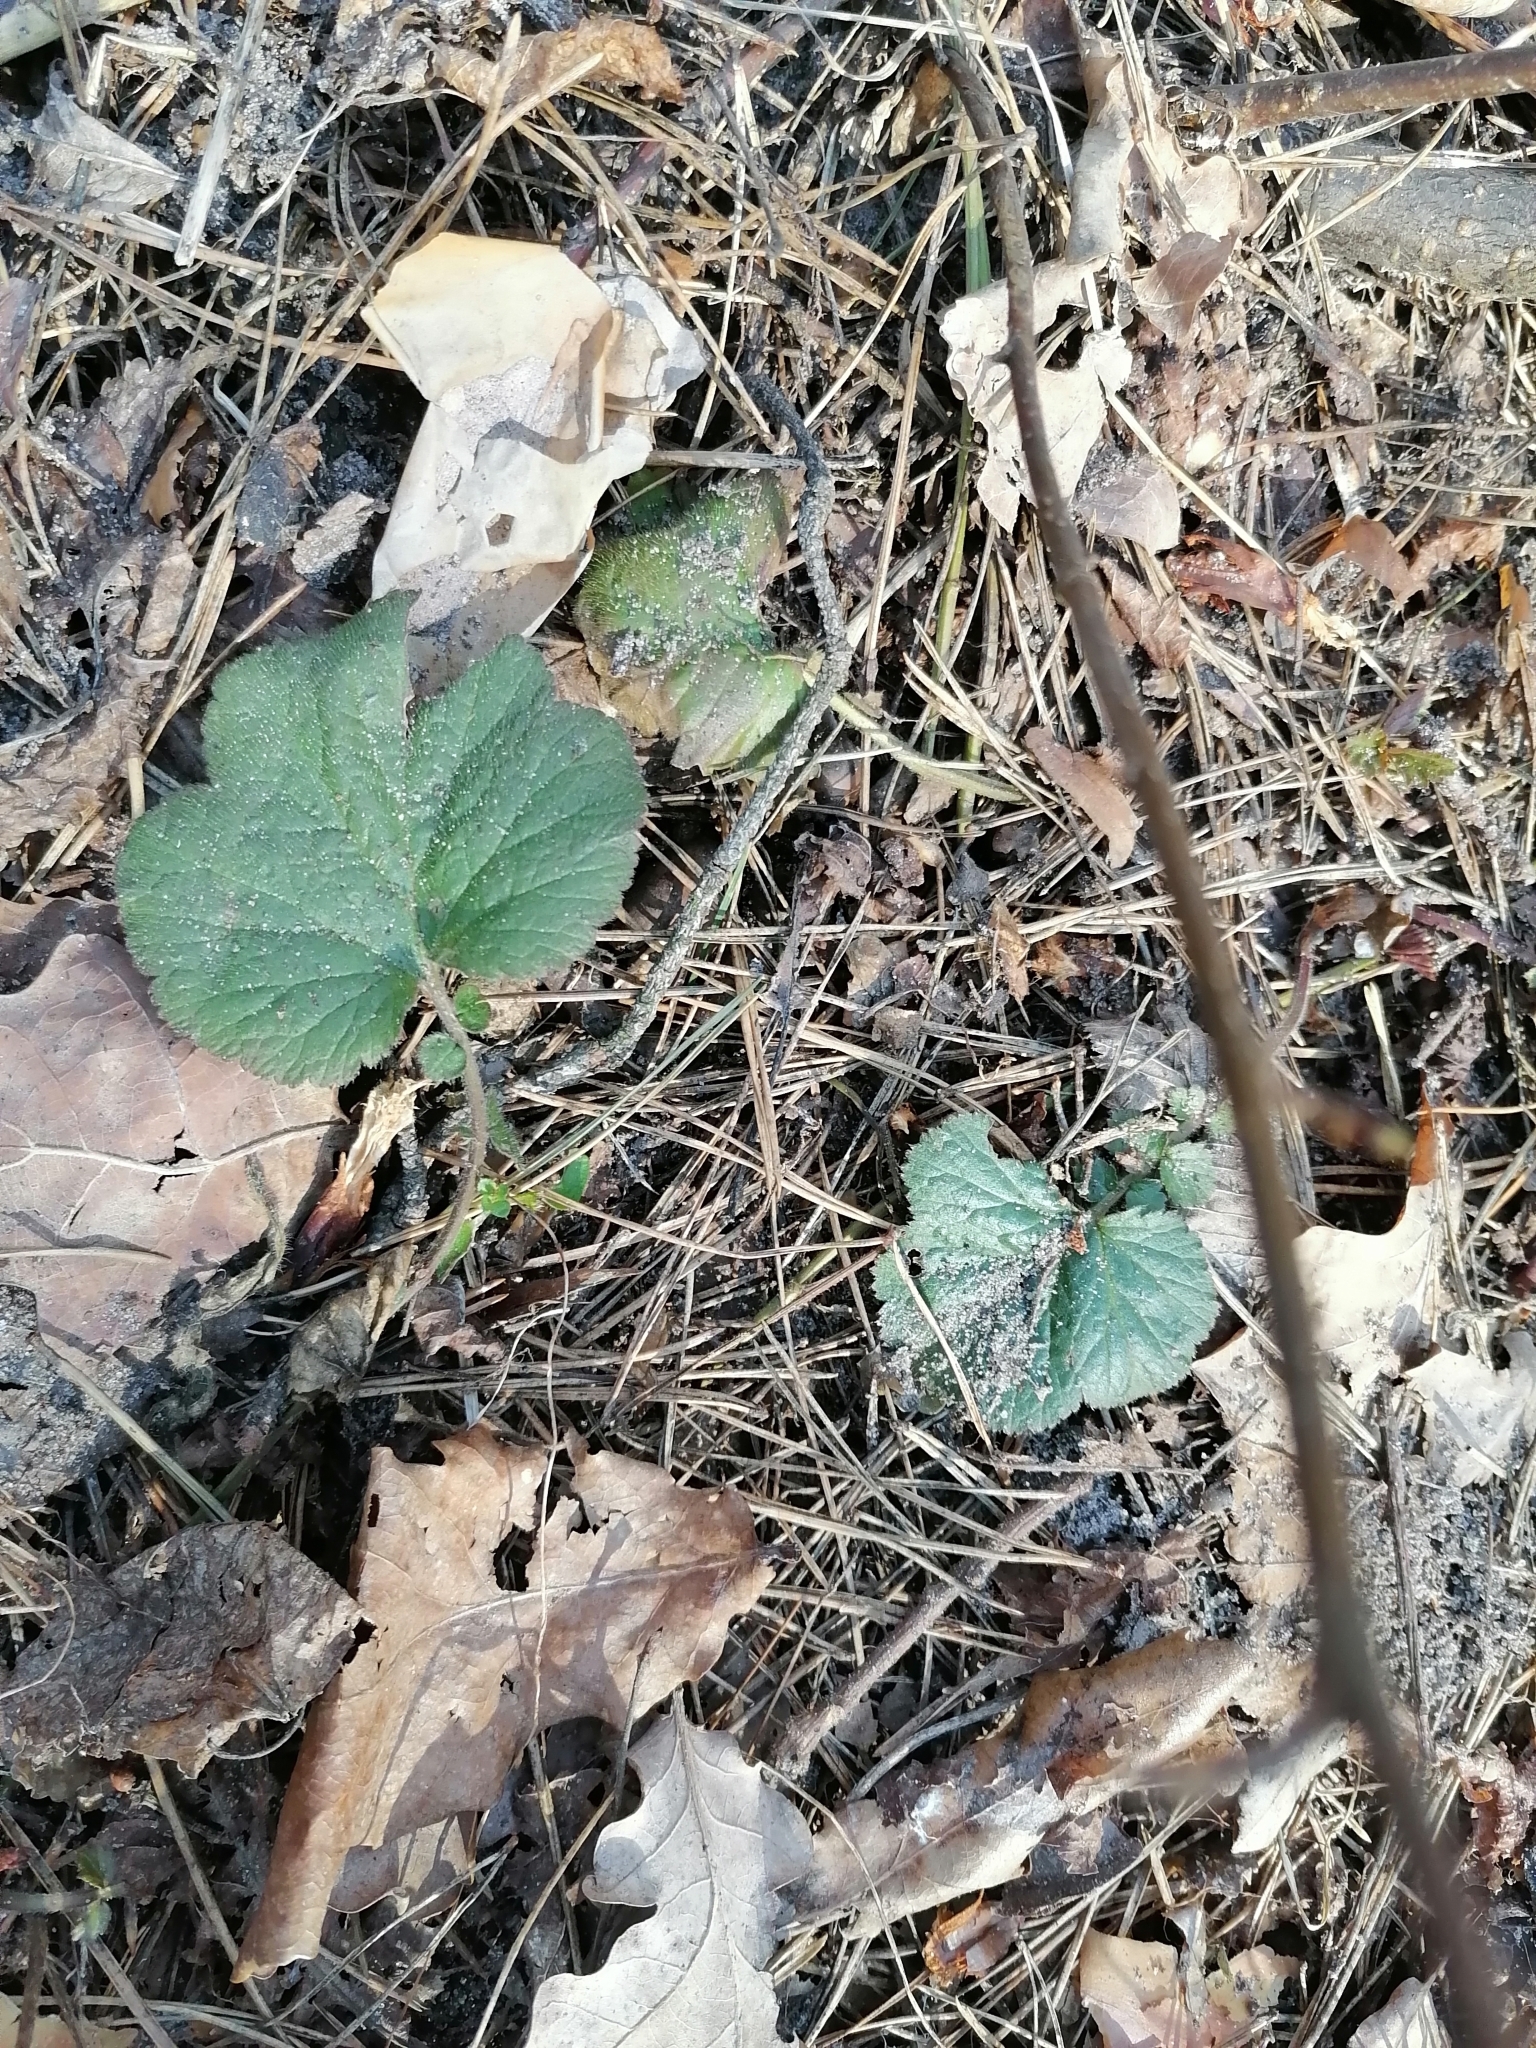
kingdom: Plantae
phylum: Tracheophyta
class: Magnoliopsida
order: Rosales
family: Rosaceae
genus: Geum
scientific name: Geum urbanum
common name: Wood avens
